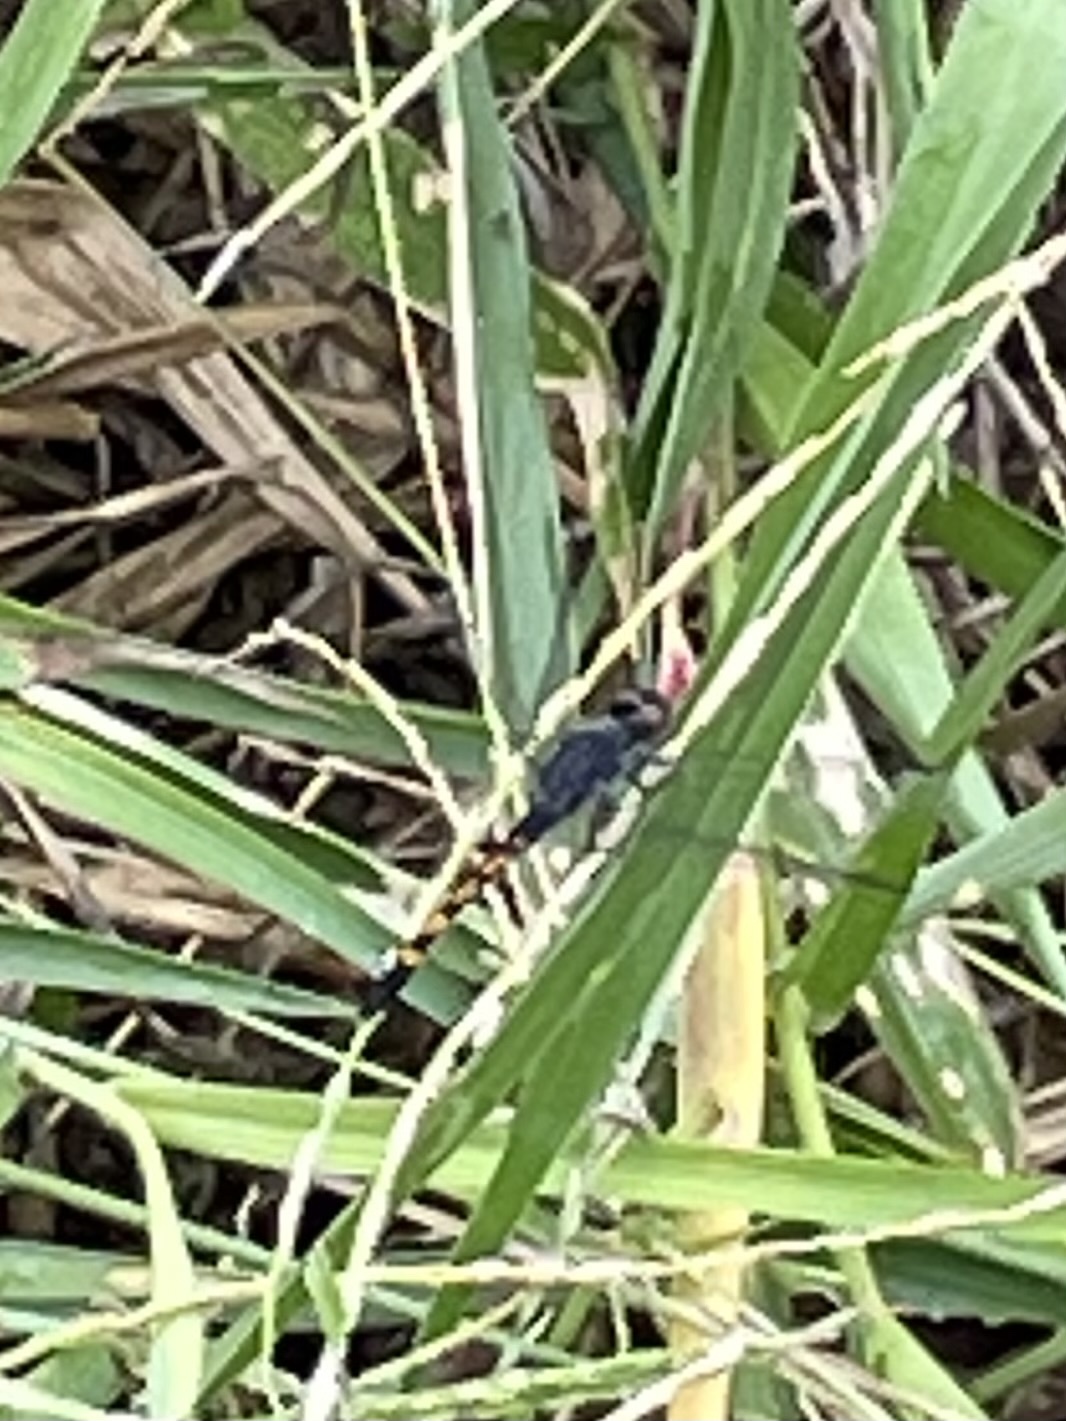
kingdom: Animalia
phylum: Arthropoda
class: Insecta
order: Odonata
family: Libellulidae
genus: Erythrodiplax
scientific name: Erythrodiplax berenice
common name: Seaside dragonlet
